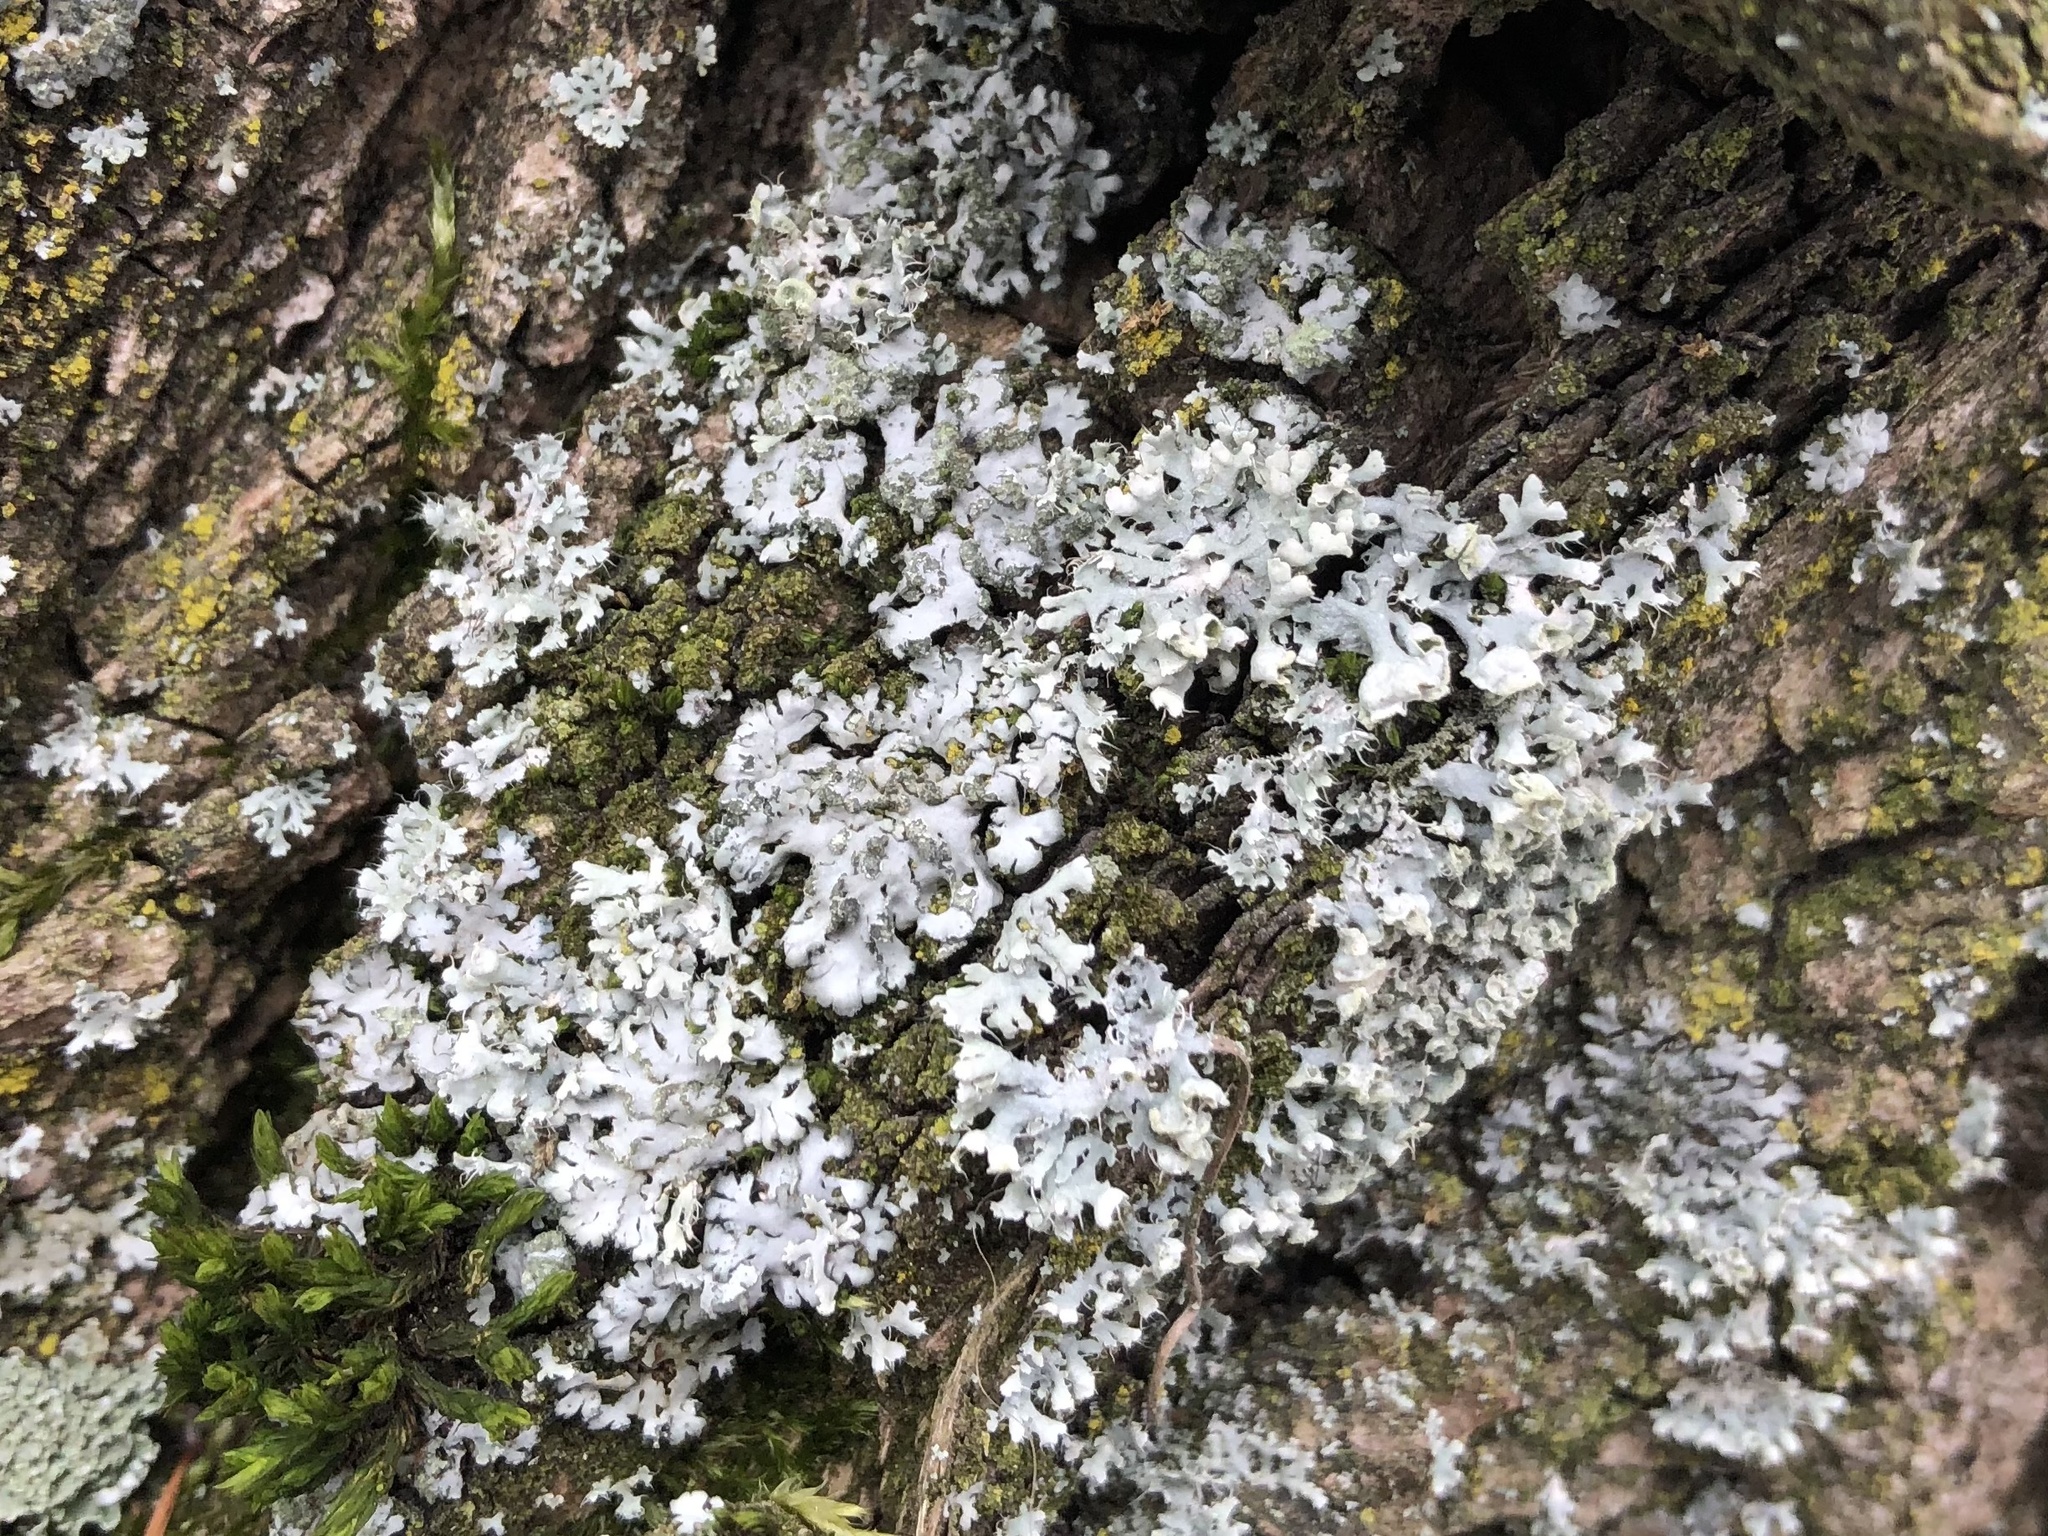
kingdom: Fungi
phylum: Ascomycota
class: Lecanoromycetes
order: Caliciales
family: Physciaceae
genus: Physcia
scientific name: Physcia adscendens
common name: Hooded rosette lichen
